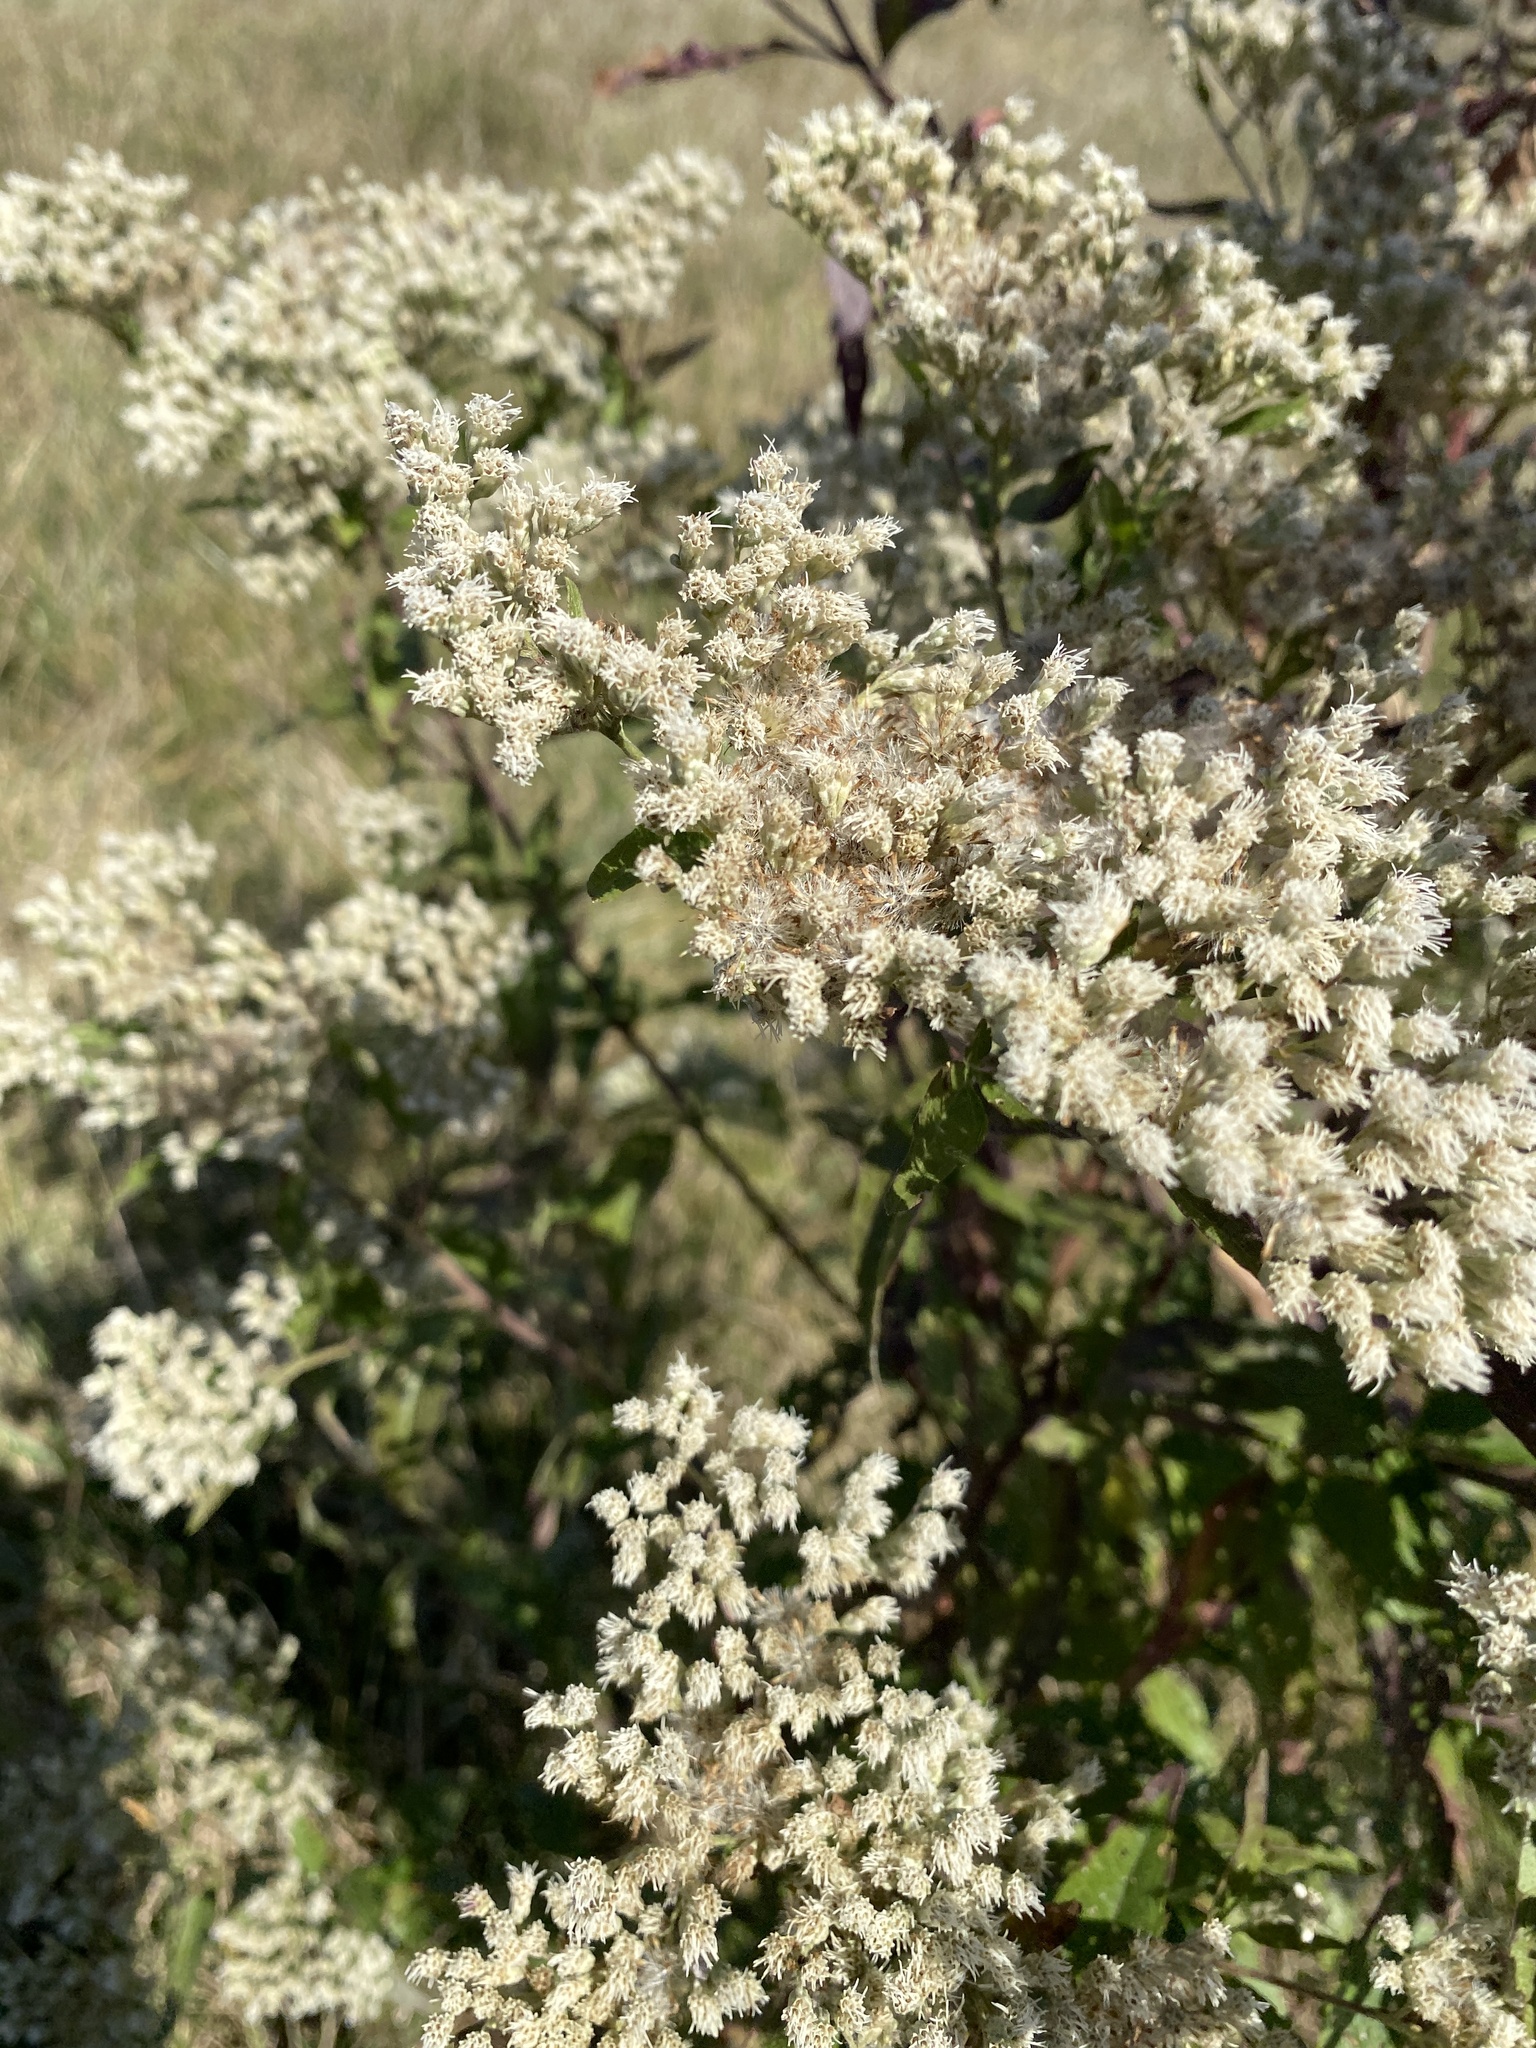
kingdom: Plantae
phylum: Tracheophyta
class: Magnoliopsida
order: Asterales
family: Asteraceae
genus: Eupatorium
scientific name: Eupatorium serotinum
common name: Late boneset
